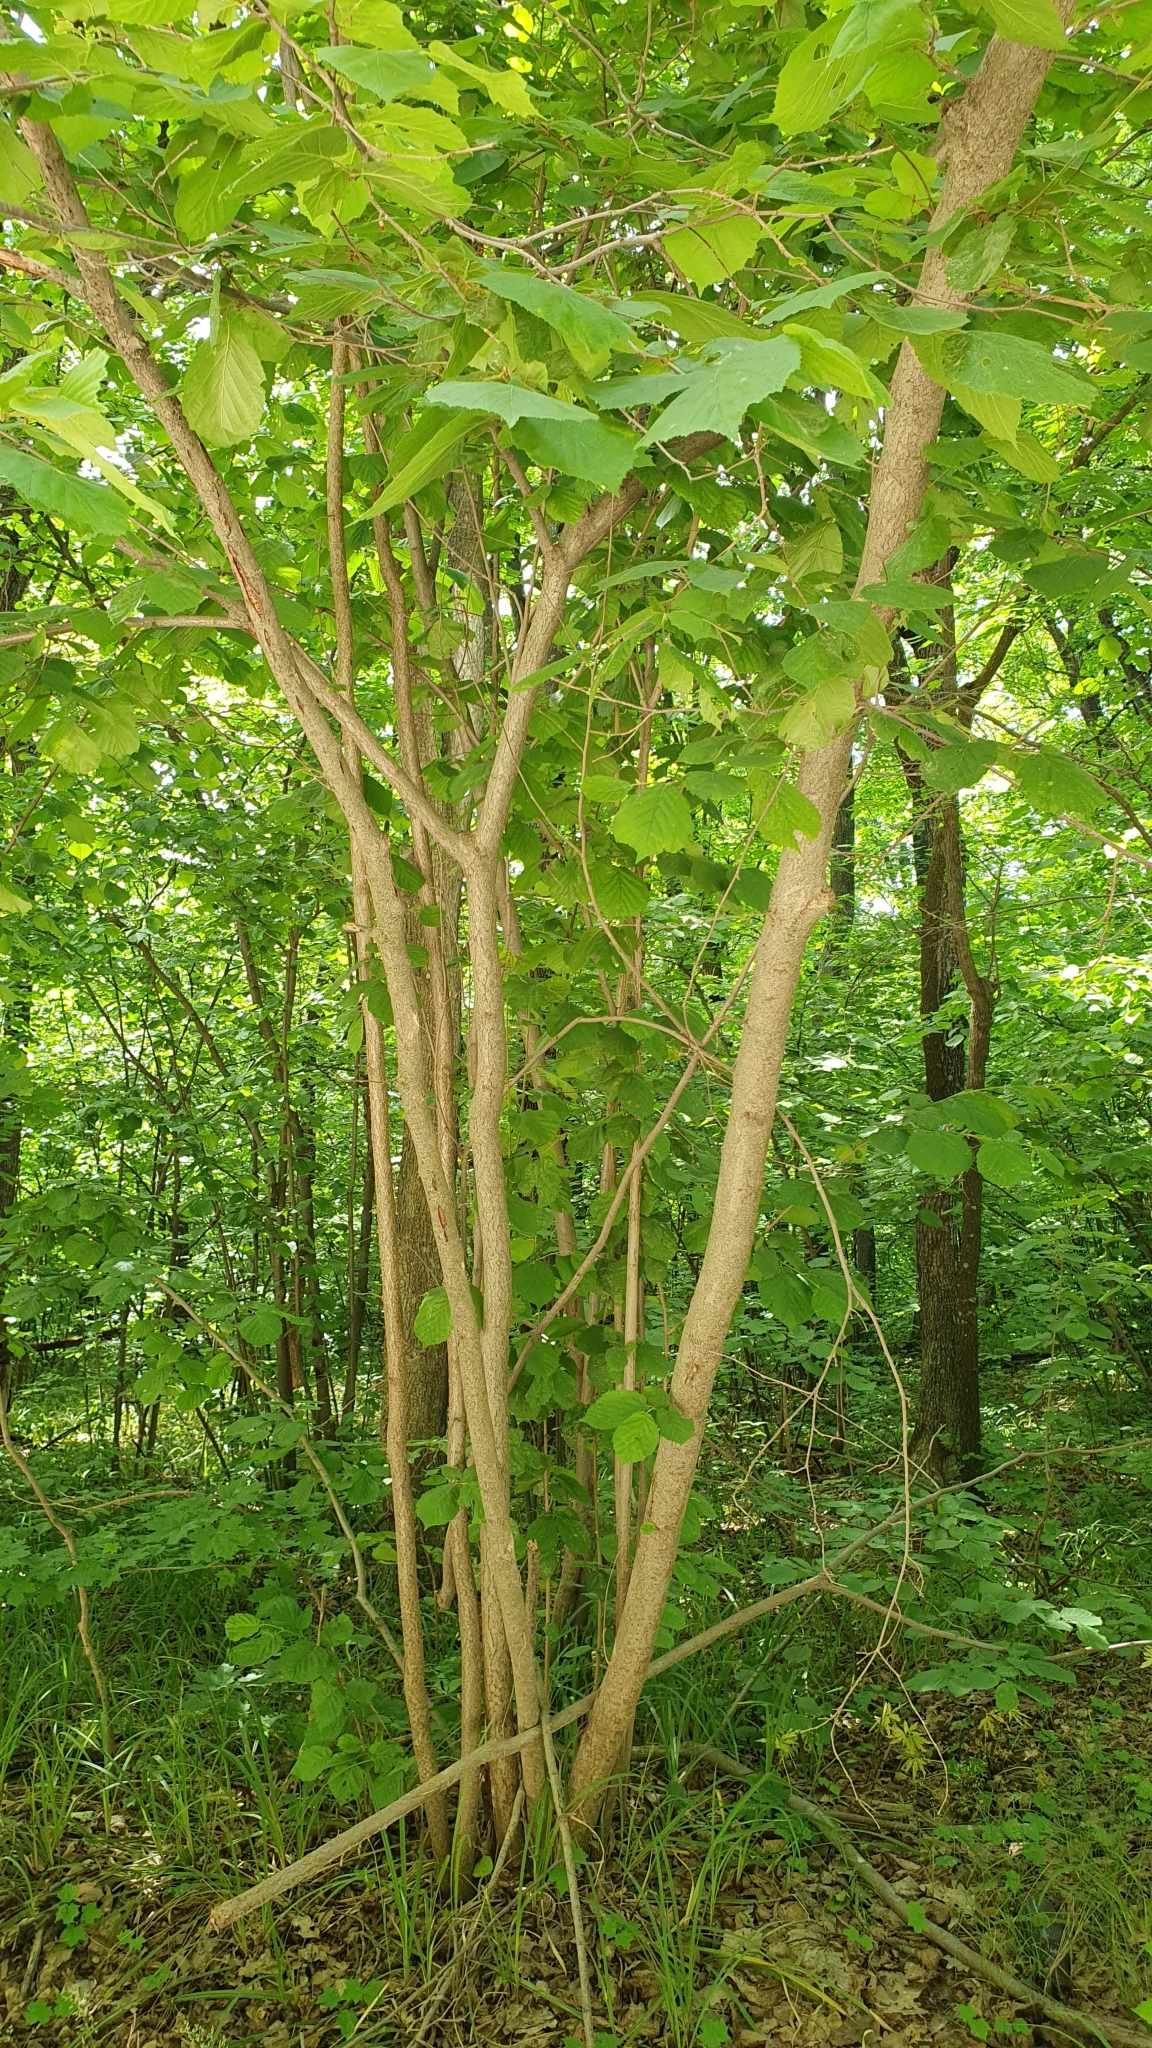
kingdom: Plantae
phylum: Tracheophyta
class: Magnoliopsida
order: Fagales
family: Betulaceae
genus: Corylus
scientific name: Corylus avellana
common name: European hazel
